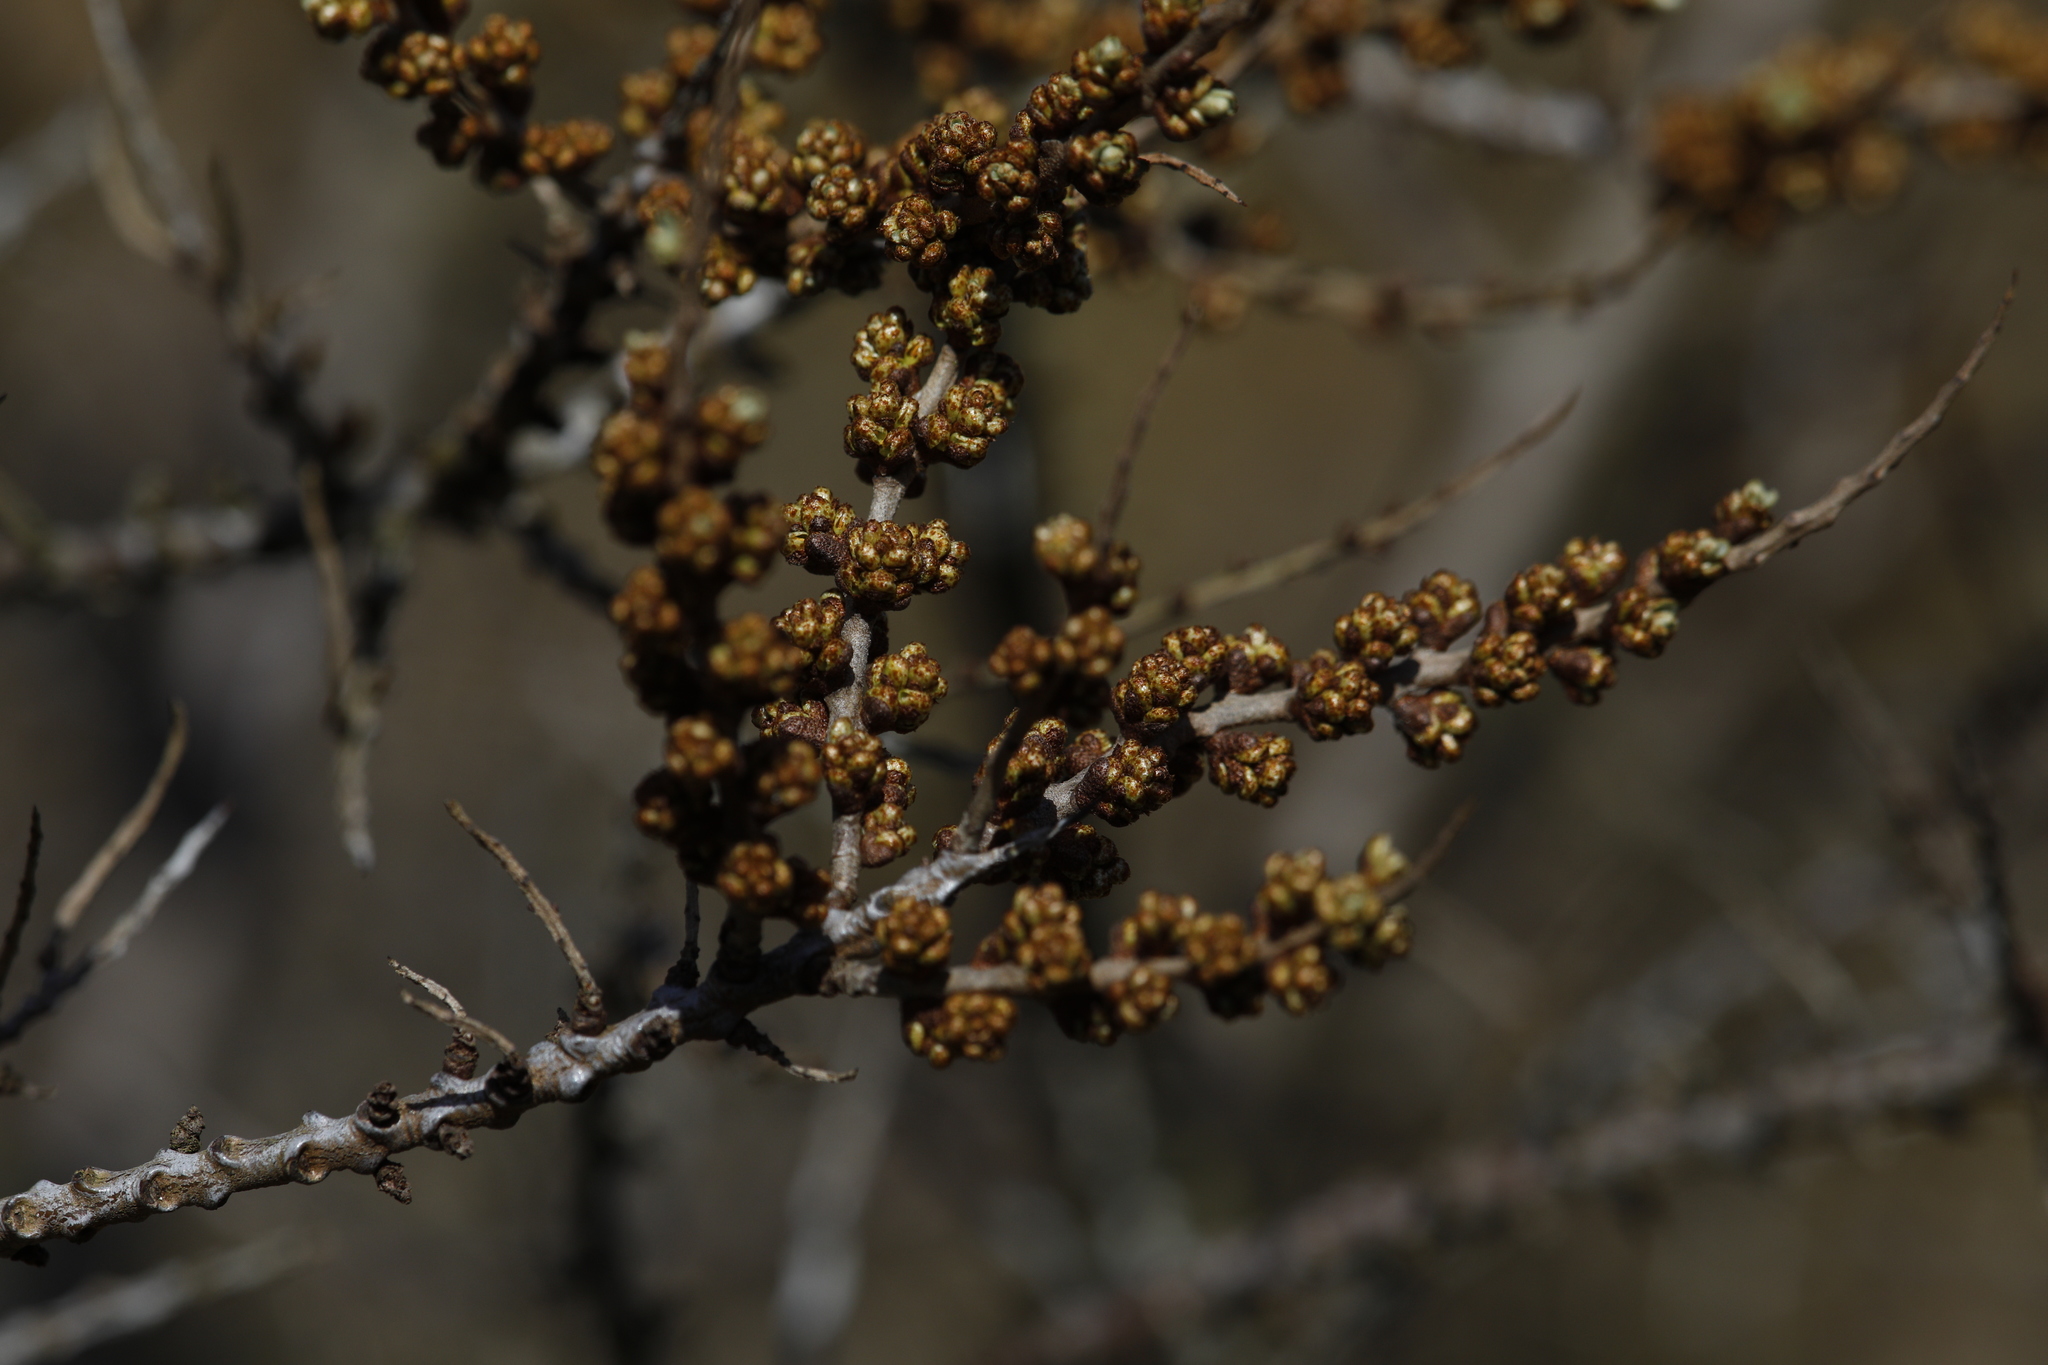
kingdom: Plantae
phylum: Tracheophyta
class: Magnoliopsida
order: Rosales
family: Elaeagnaceae
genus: Hippophae
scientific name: Hippophae rhamnoides
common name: Sea-buckthorn
